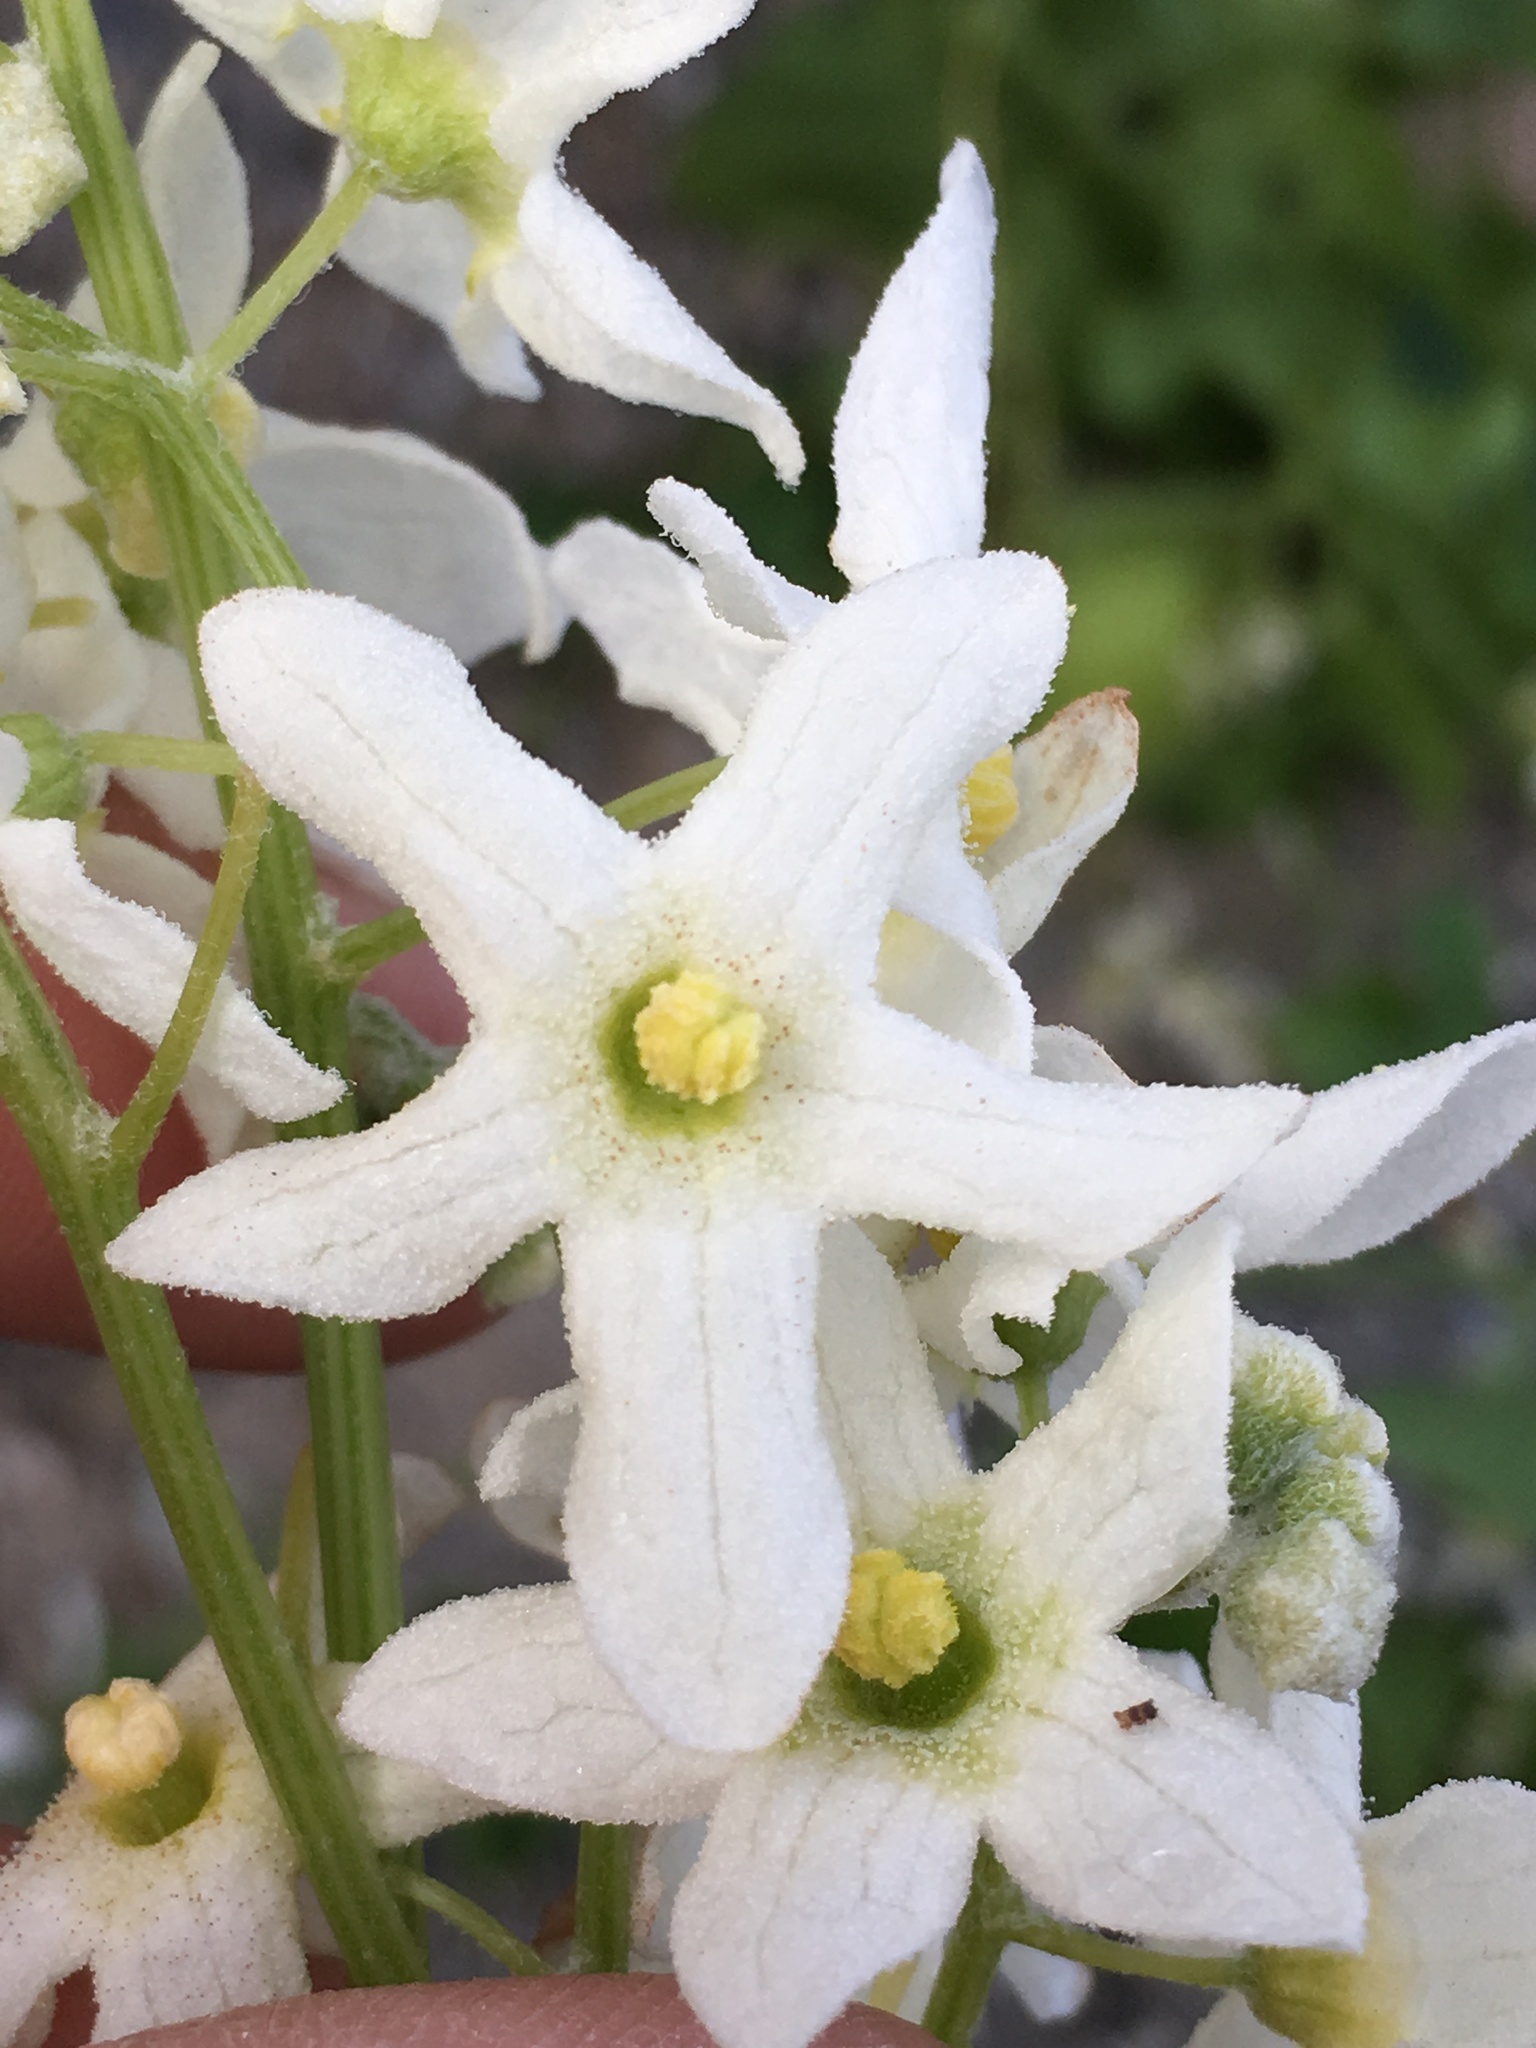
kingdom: Plantae
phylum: Tracheophyta
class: Magnoliopsida
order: Cucurbitales
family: Cucurbitaceae
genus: Marah
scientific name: Marah macrocarpa
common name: Cucamonga manroot
